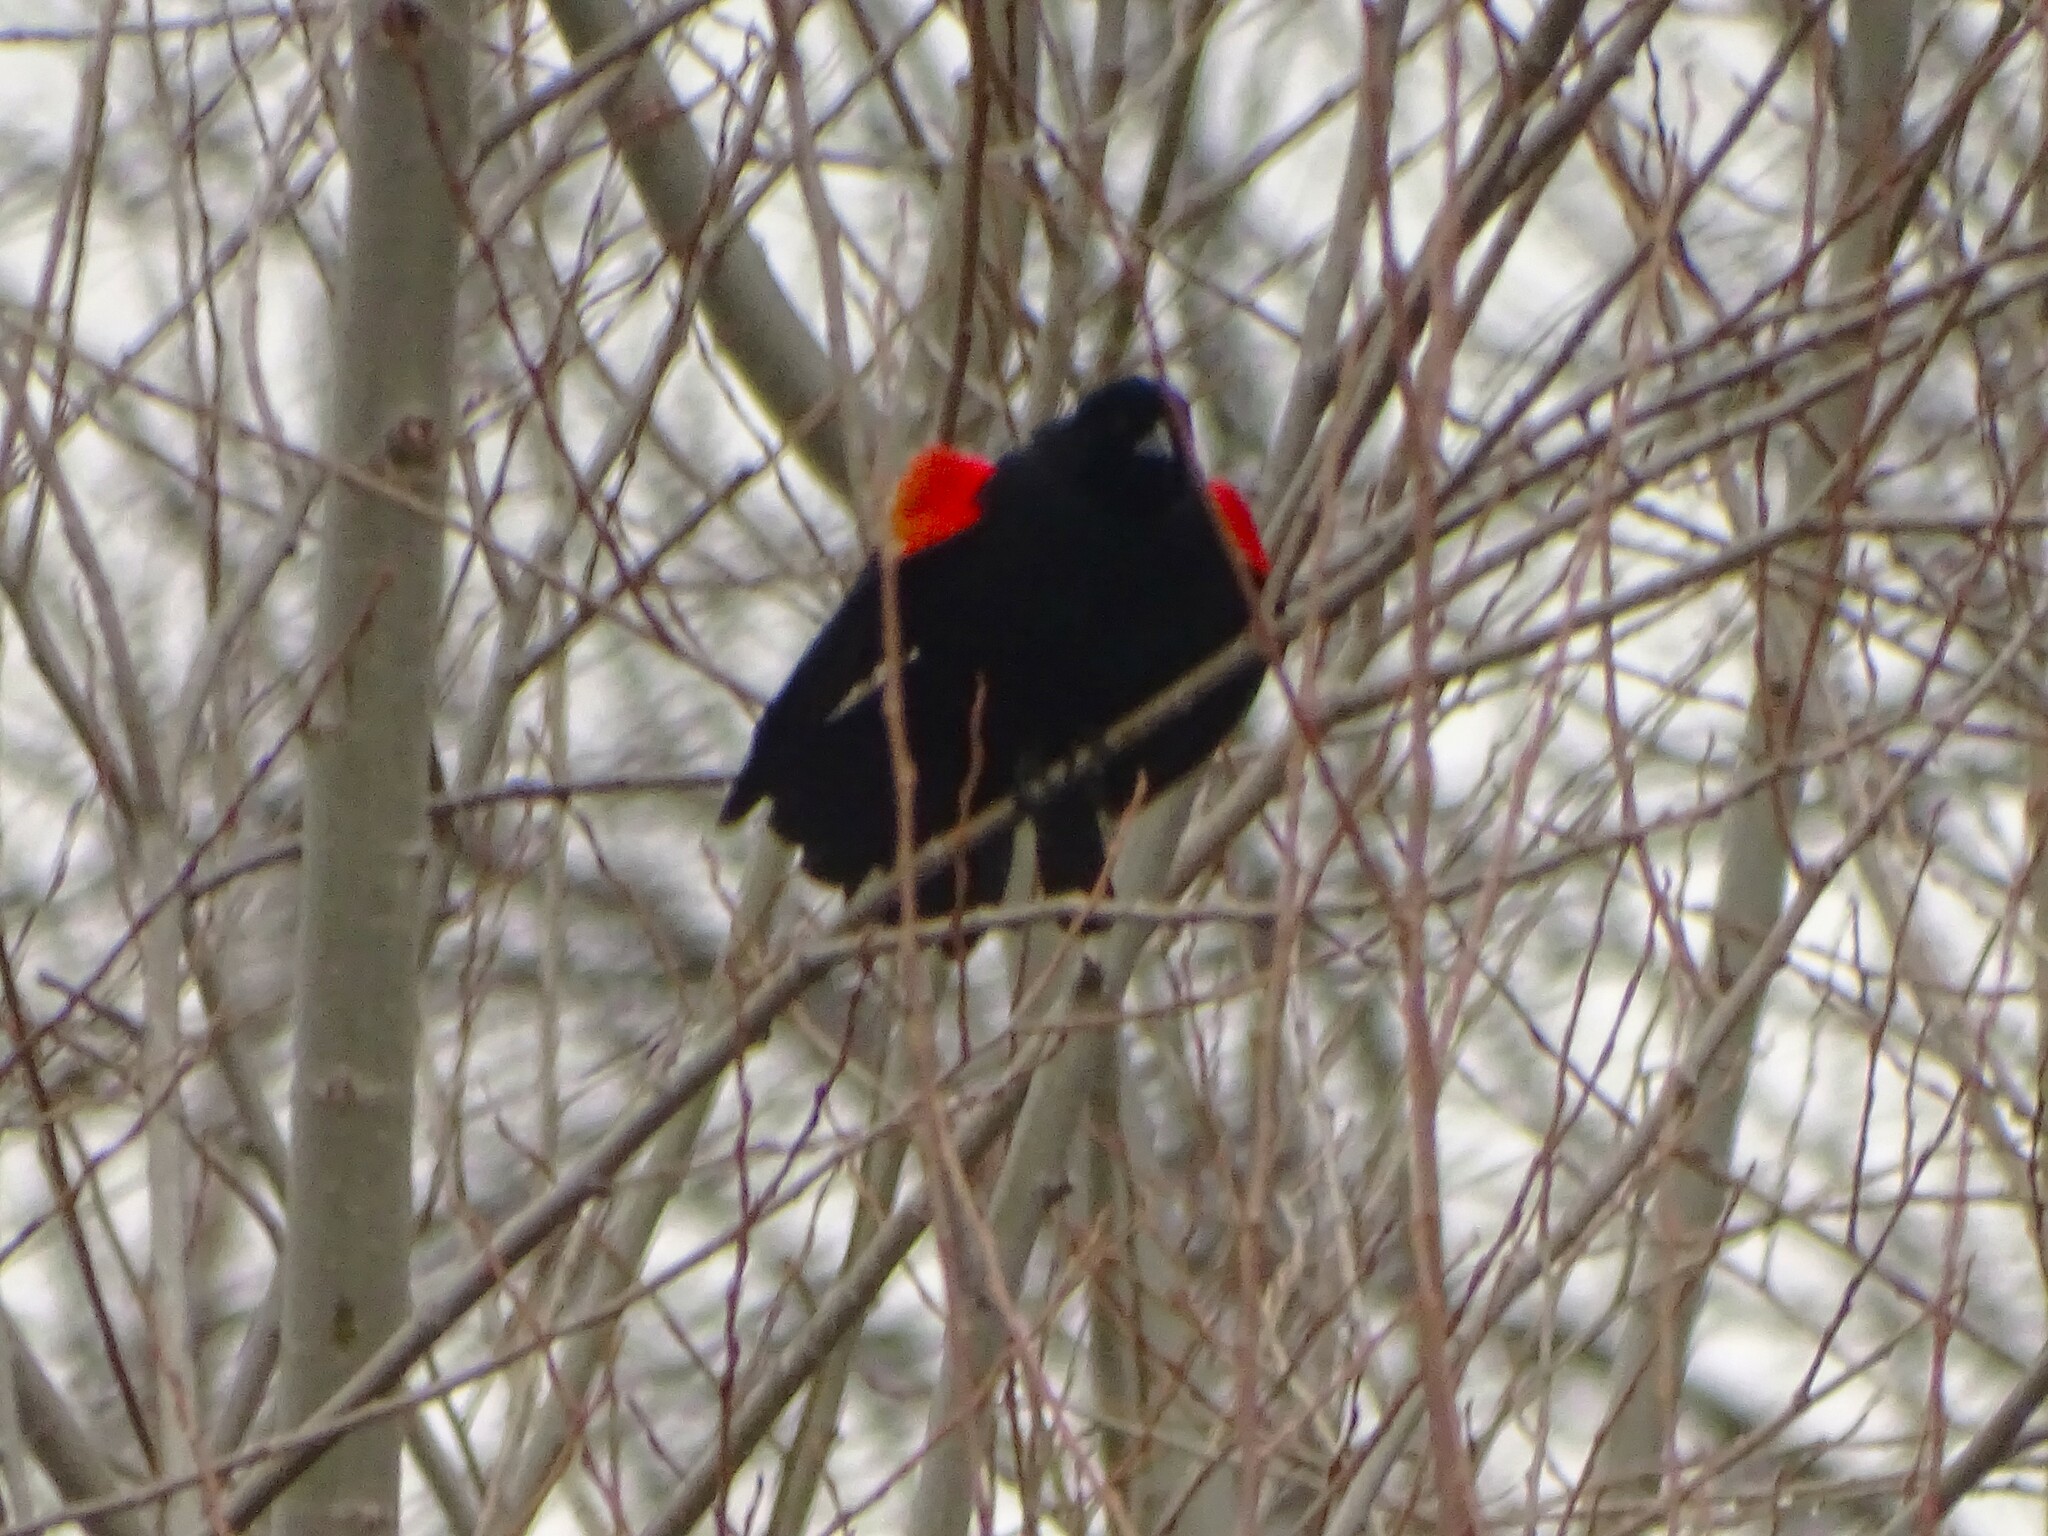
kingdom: Animalia
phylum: Chordata
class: Aves
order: Passeriformes
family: Icteridae
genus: Agelaius
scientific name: Agelaius phoeniceus
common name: Red-winged blackbird
